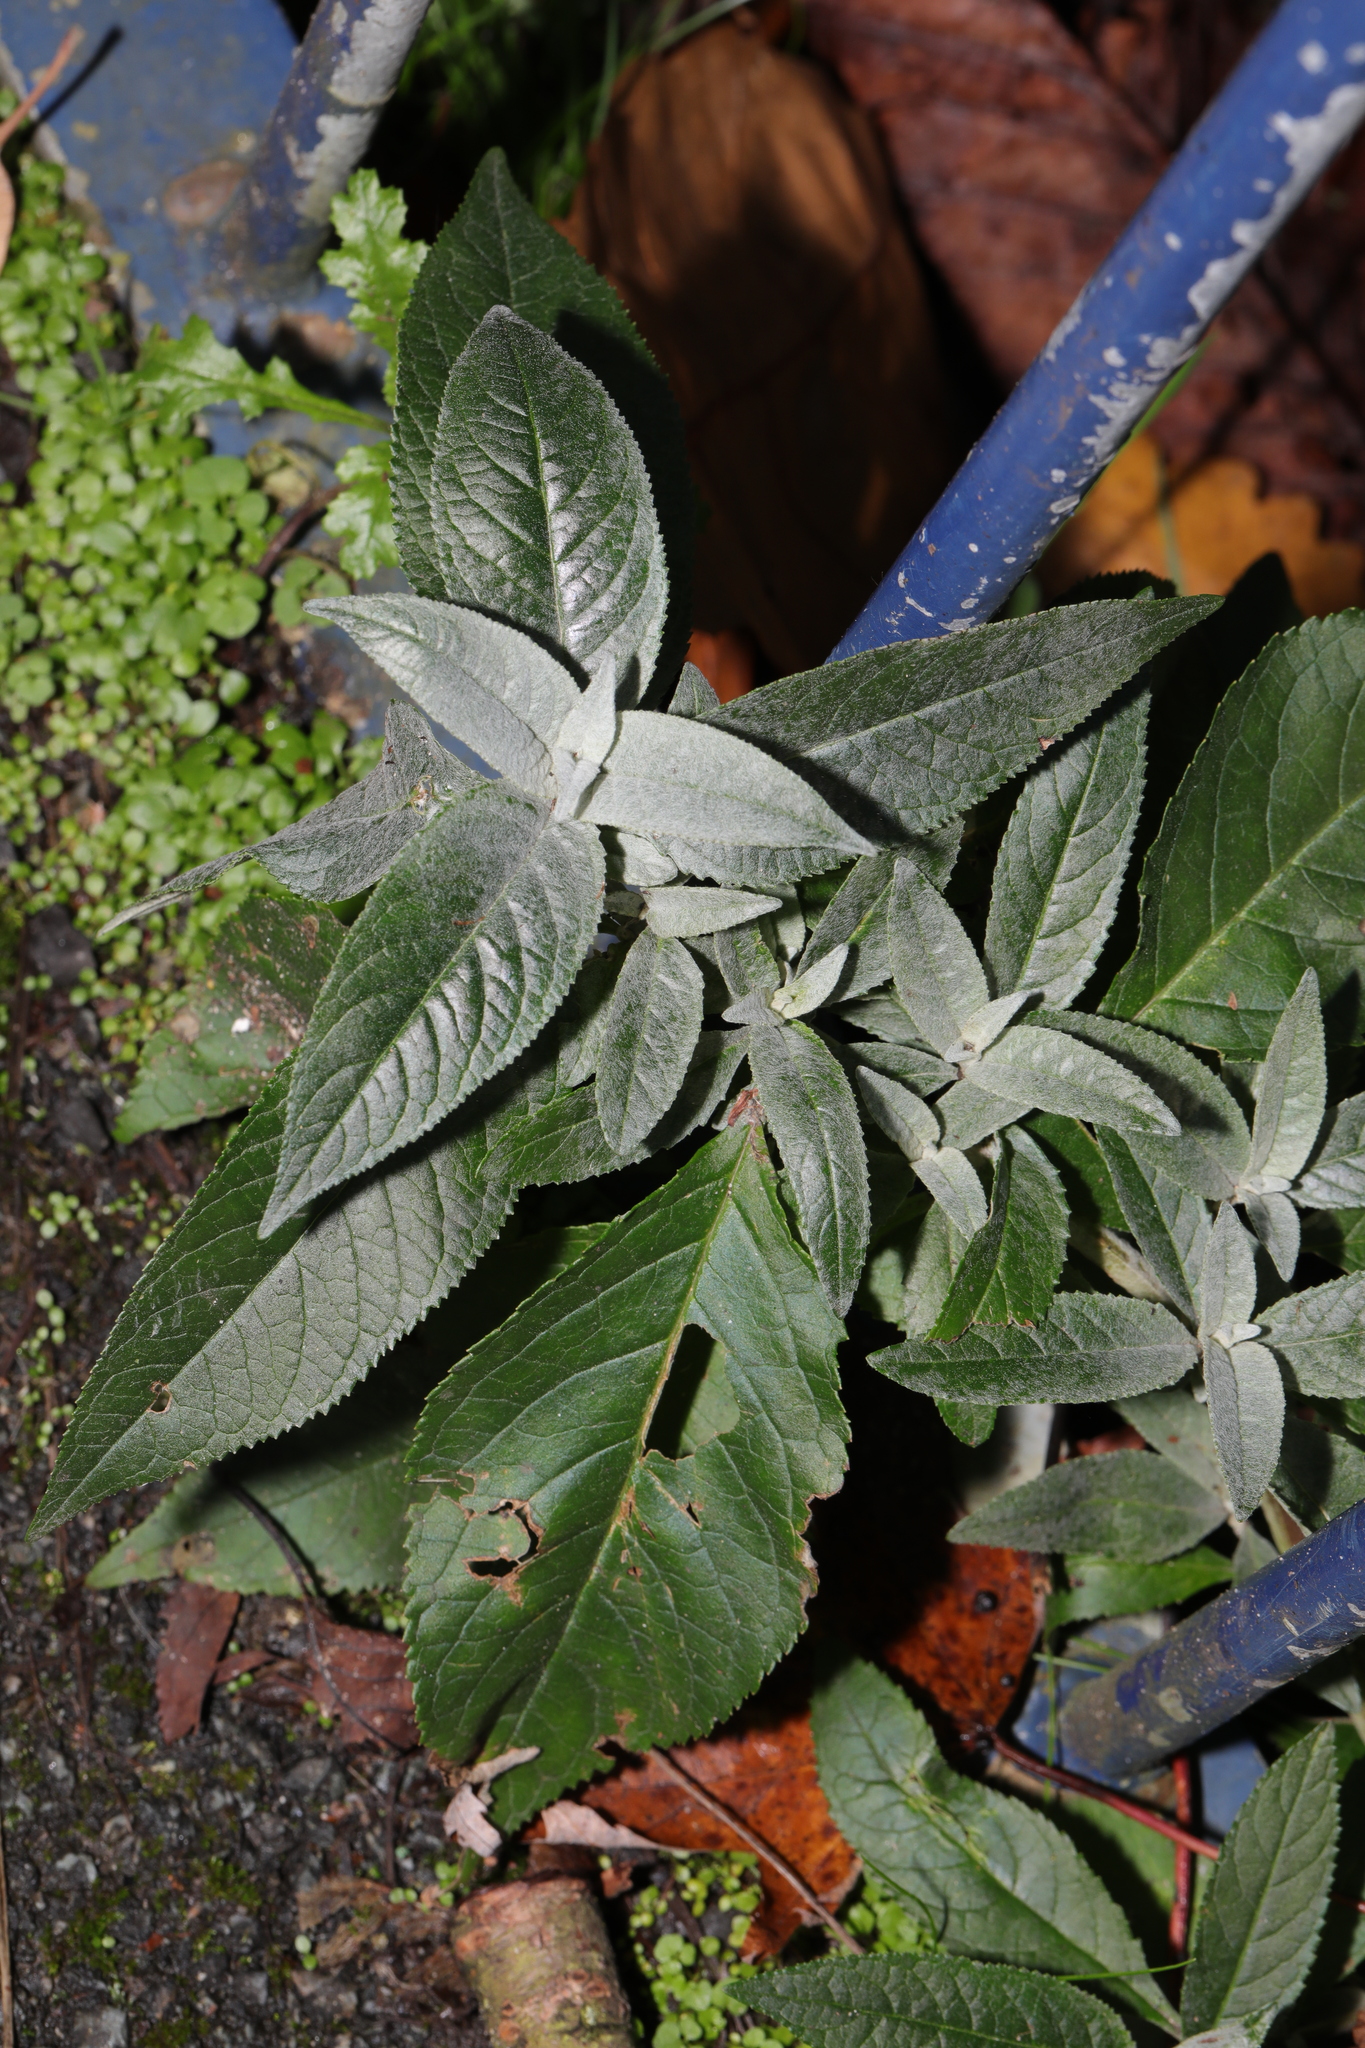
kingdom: Plantae
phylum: Tracheophyta
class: Magnoliopsida
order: Lamiales
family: Scrophulariaceae
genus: Buddleja
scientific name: Buddleja davidii
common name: Butterfly-bush
